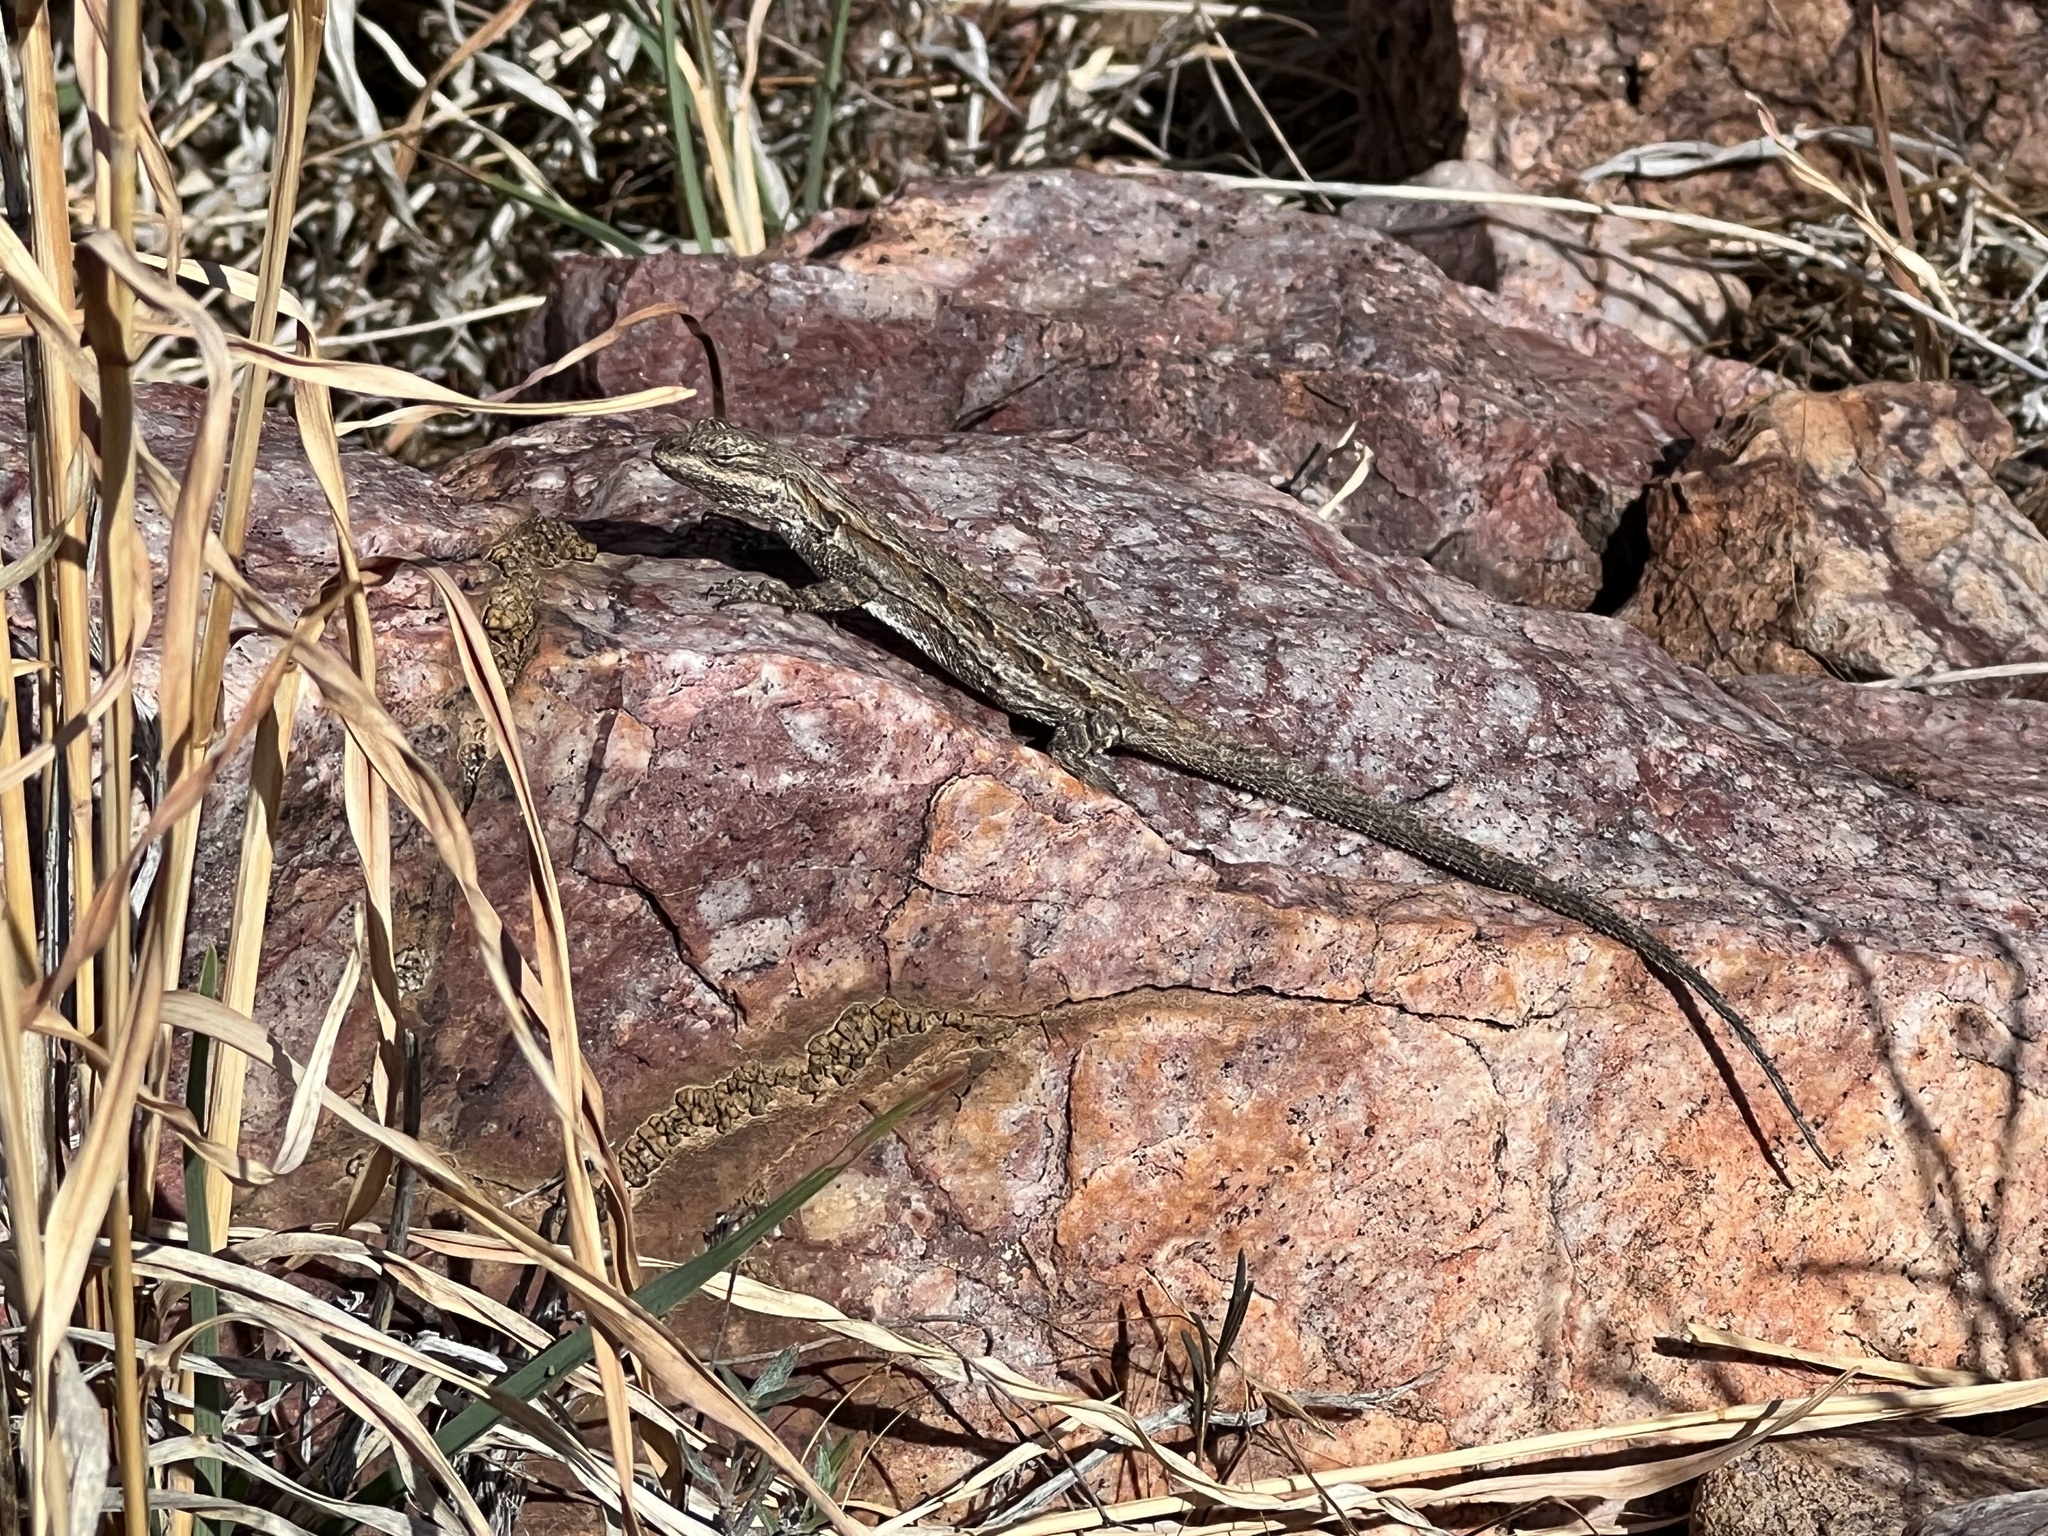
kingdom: Animalia
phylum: Chordata
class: Squamata
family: Phrynosomatidae
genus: Urosaurus
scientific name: Urosaurus ornatus
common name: Ornate tree lizard
